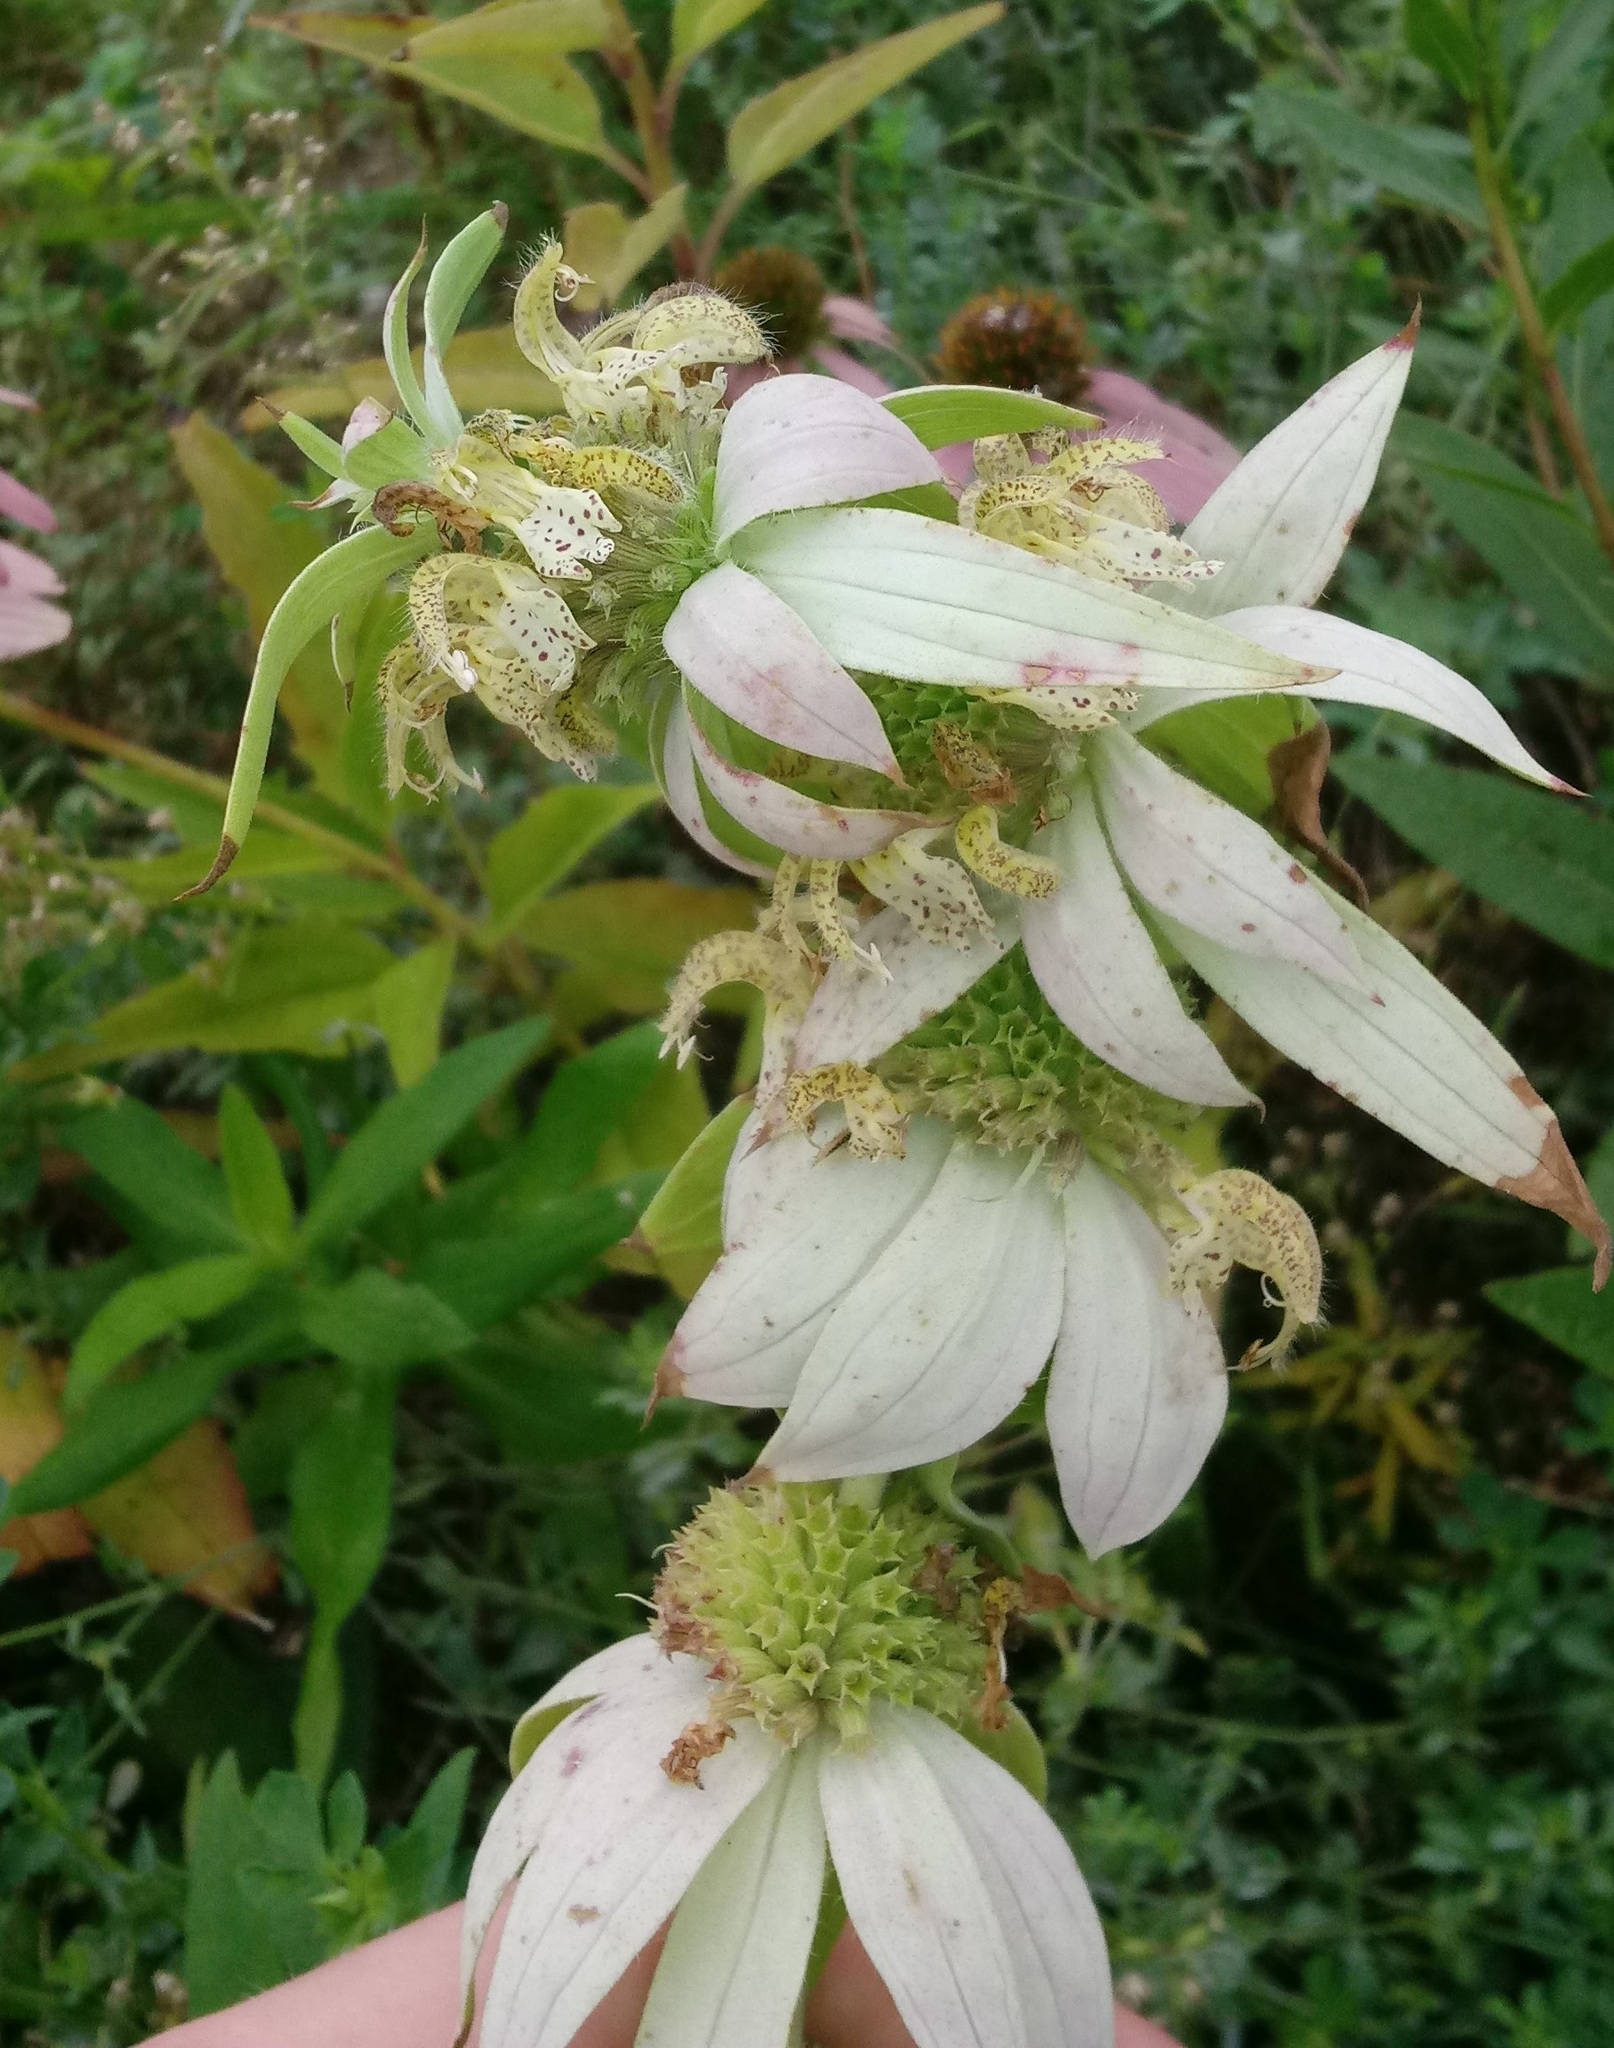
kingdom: Plantae
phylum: Tracheophyta
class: Magnoliopsida
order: Lamiales
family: Lamiaceae
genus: Monarda
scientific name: Monarda punctata
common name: Dotted monarda
